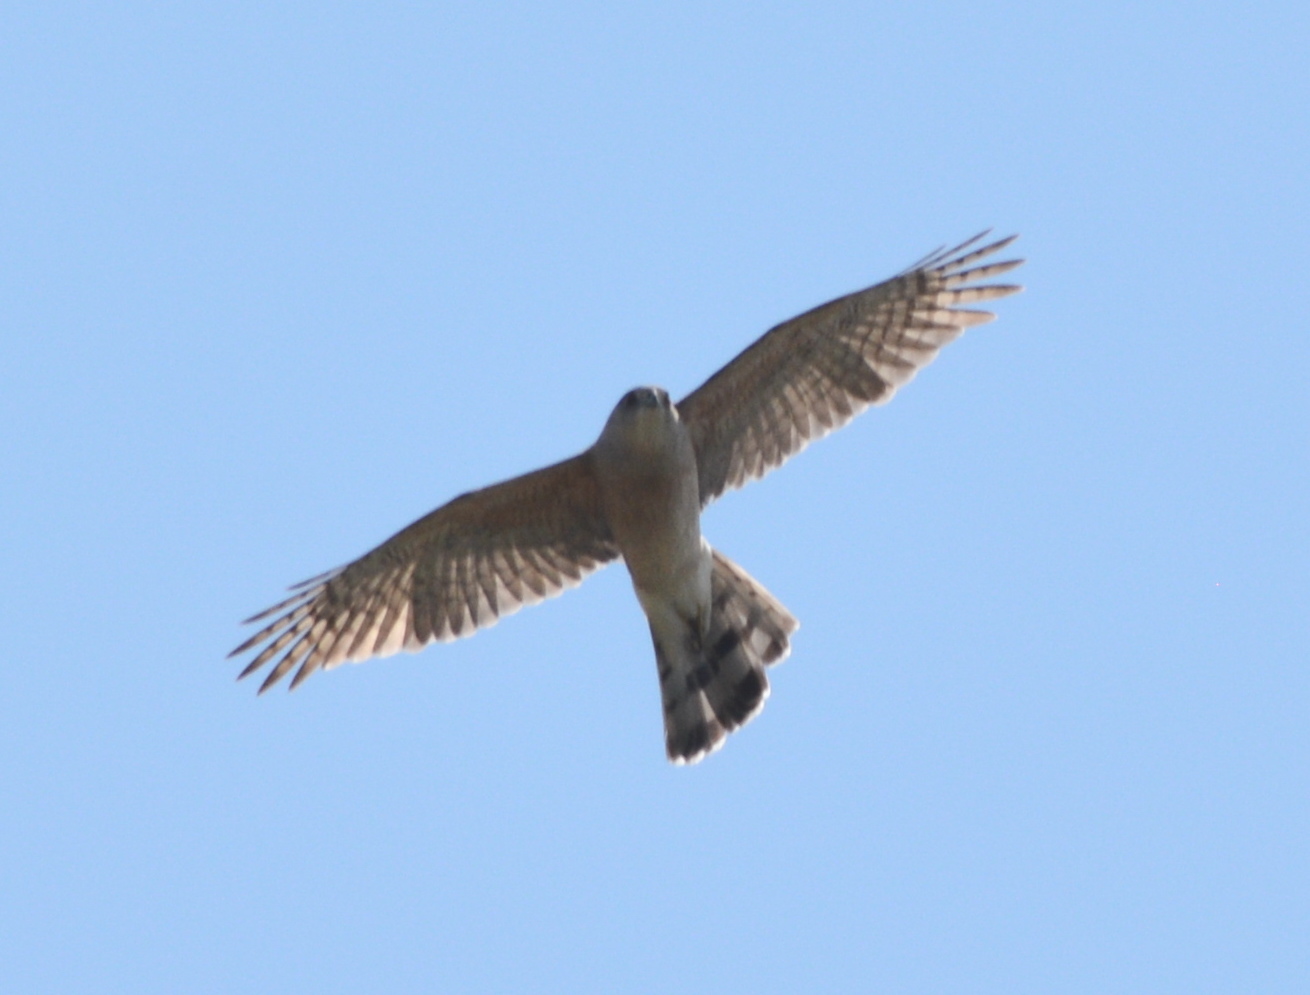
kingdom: Animalia
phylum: Chordata
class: Aves
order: Accipitriformes
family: Accipitridae
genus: Accipiter
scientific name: Accipiter cooperii
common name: Cooper's hawk
